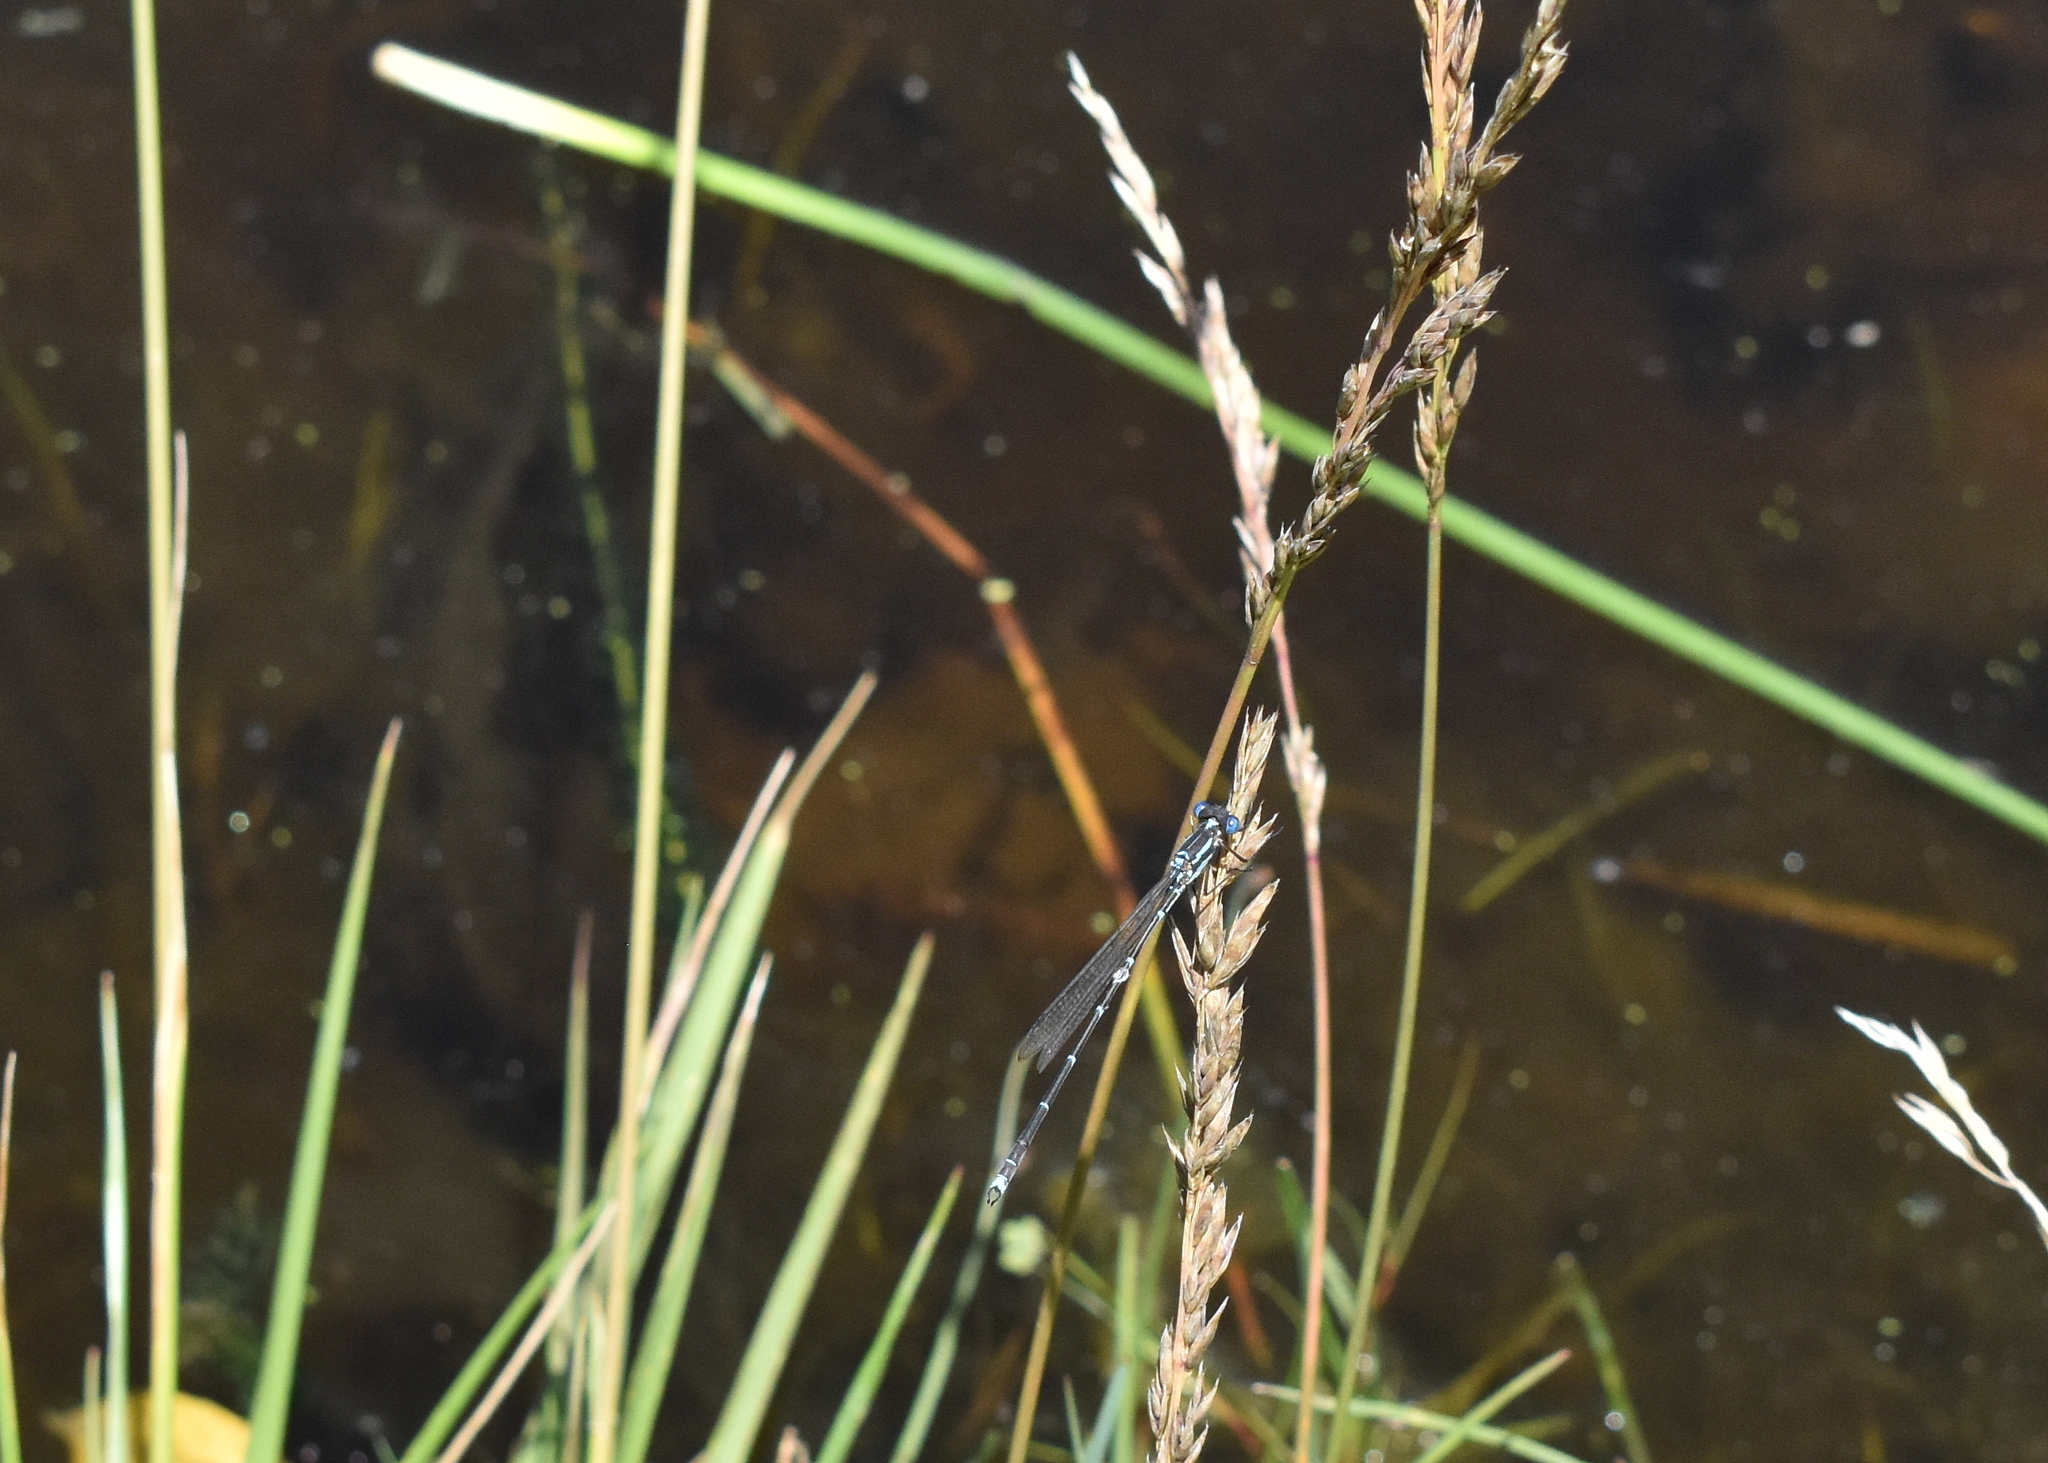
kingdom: Animalia
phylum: Arthropoda
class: Insecta
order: Odonata
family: Lestidae
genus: Austrolestes
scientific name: Austrolestes colensonis
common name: Blue damselfly
